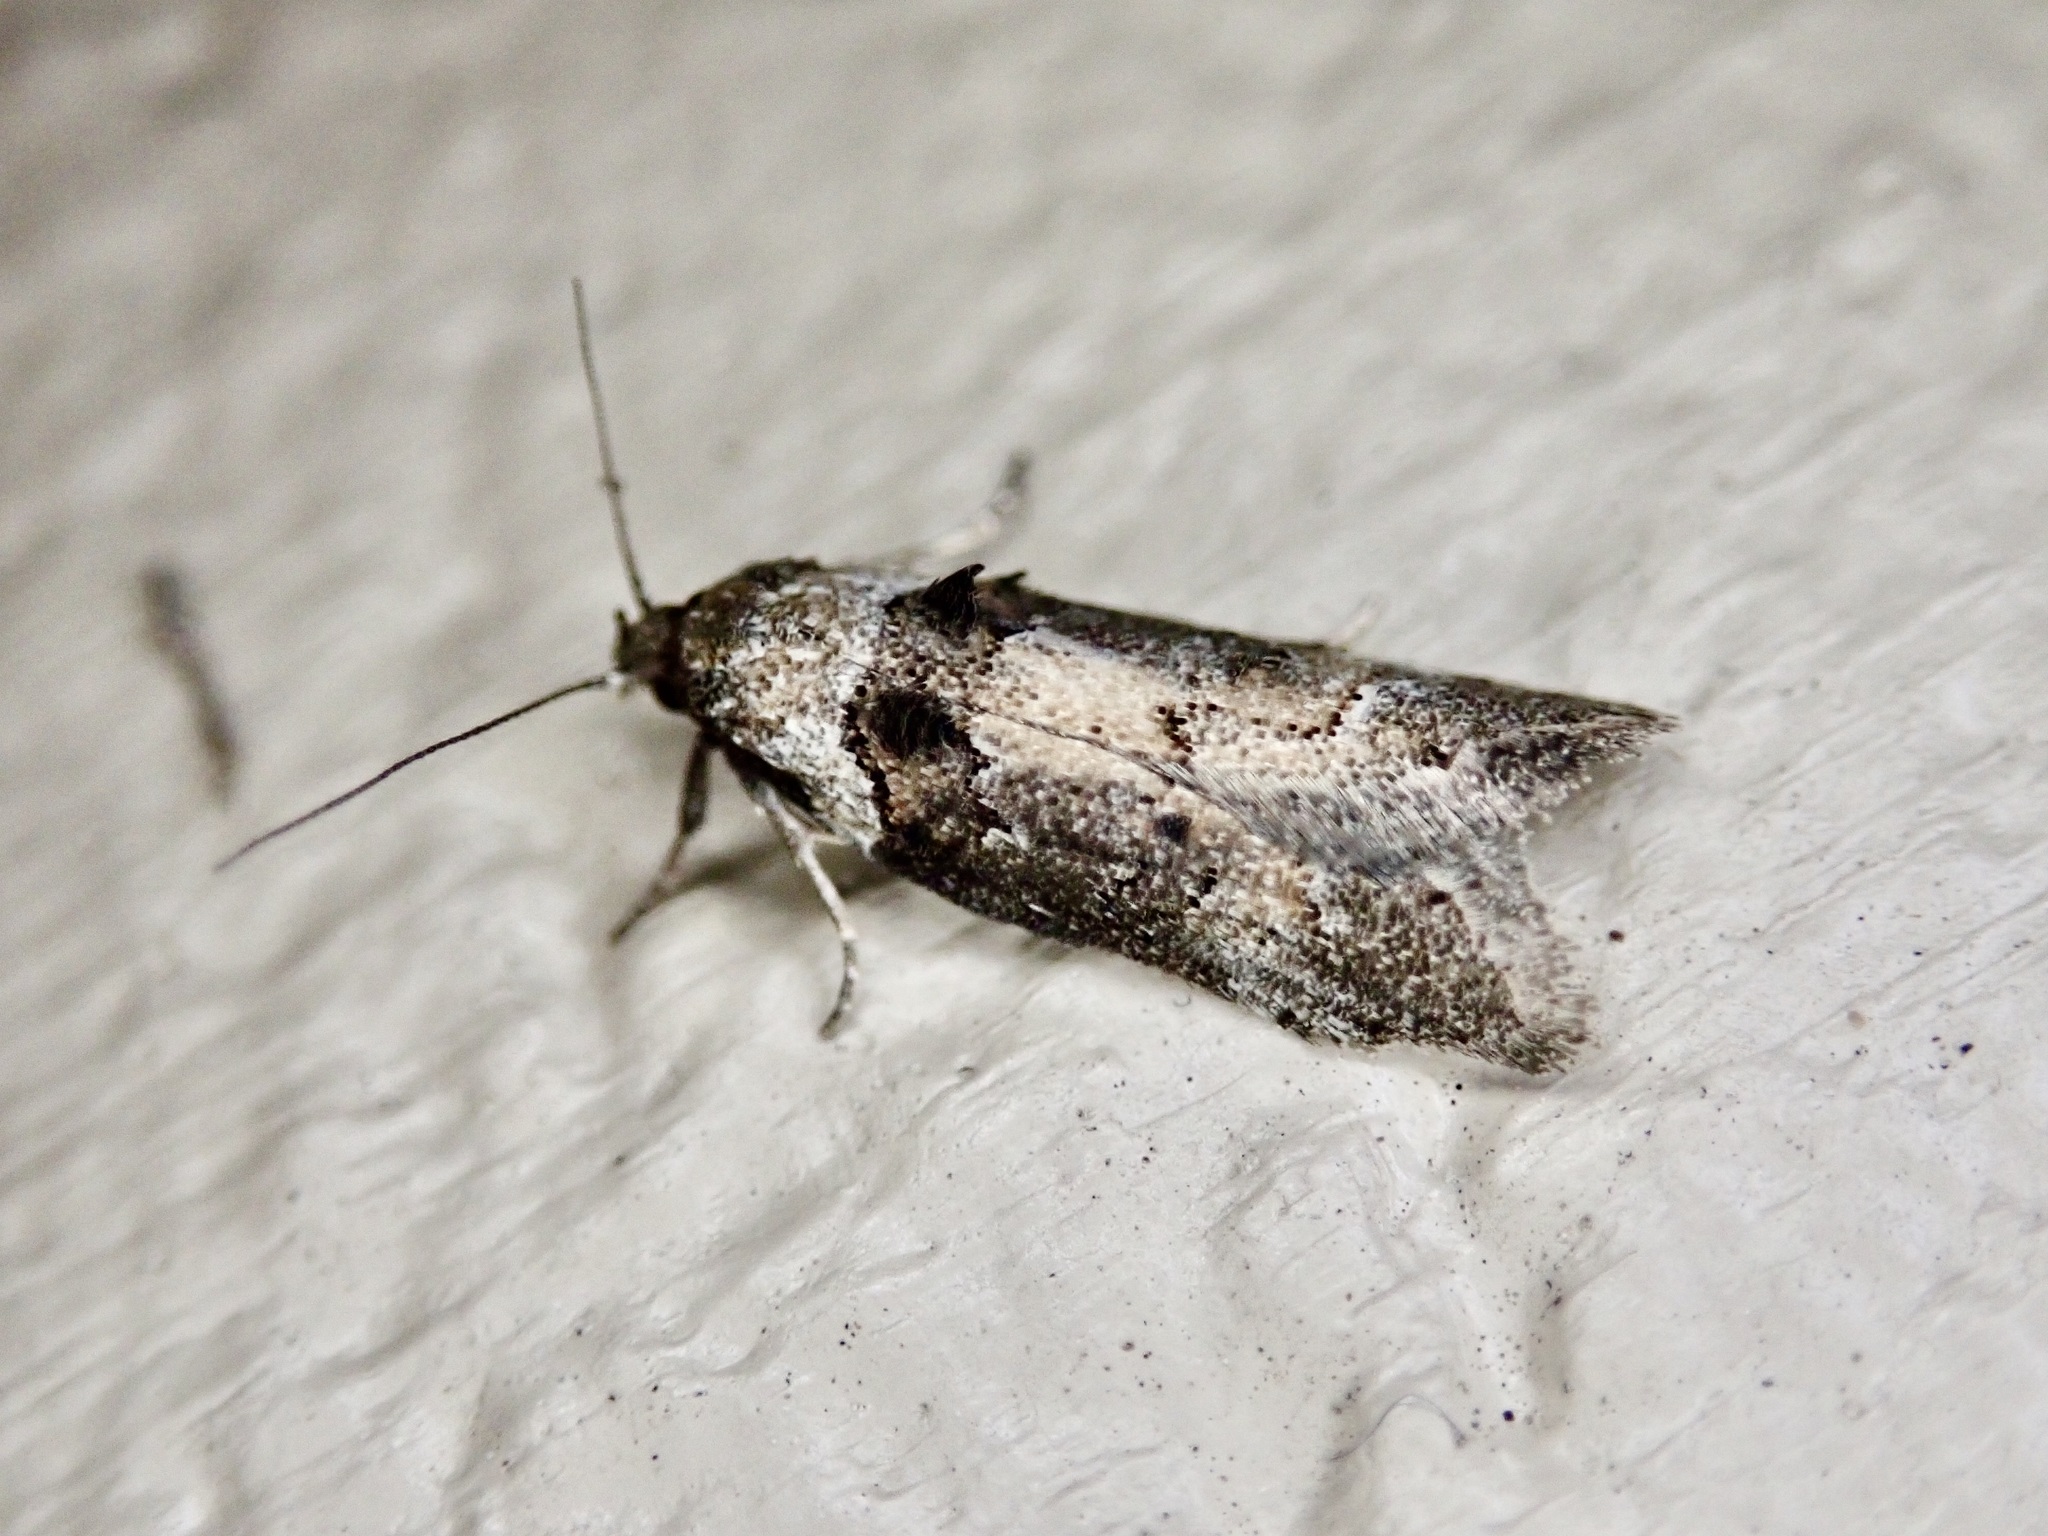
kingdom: Animalia
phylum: Arthropoda
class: Insecta
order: Lepidoptera
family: Oecophoridae
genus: Trachypepla
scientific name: Trachypepla conspicuella
